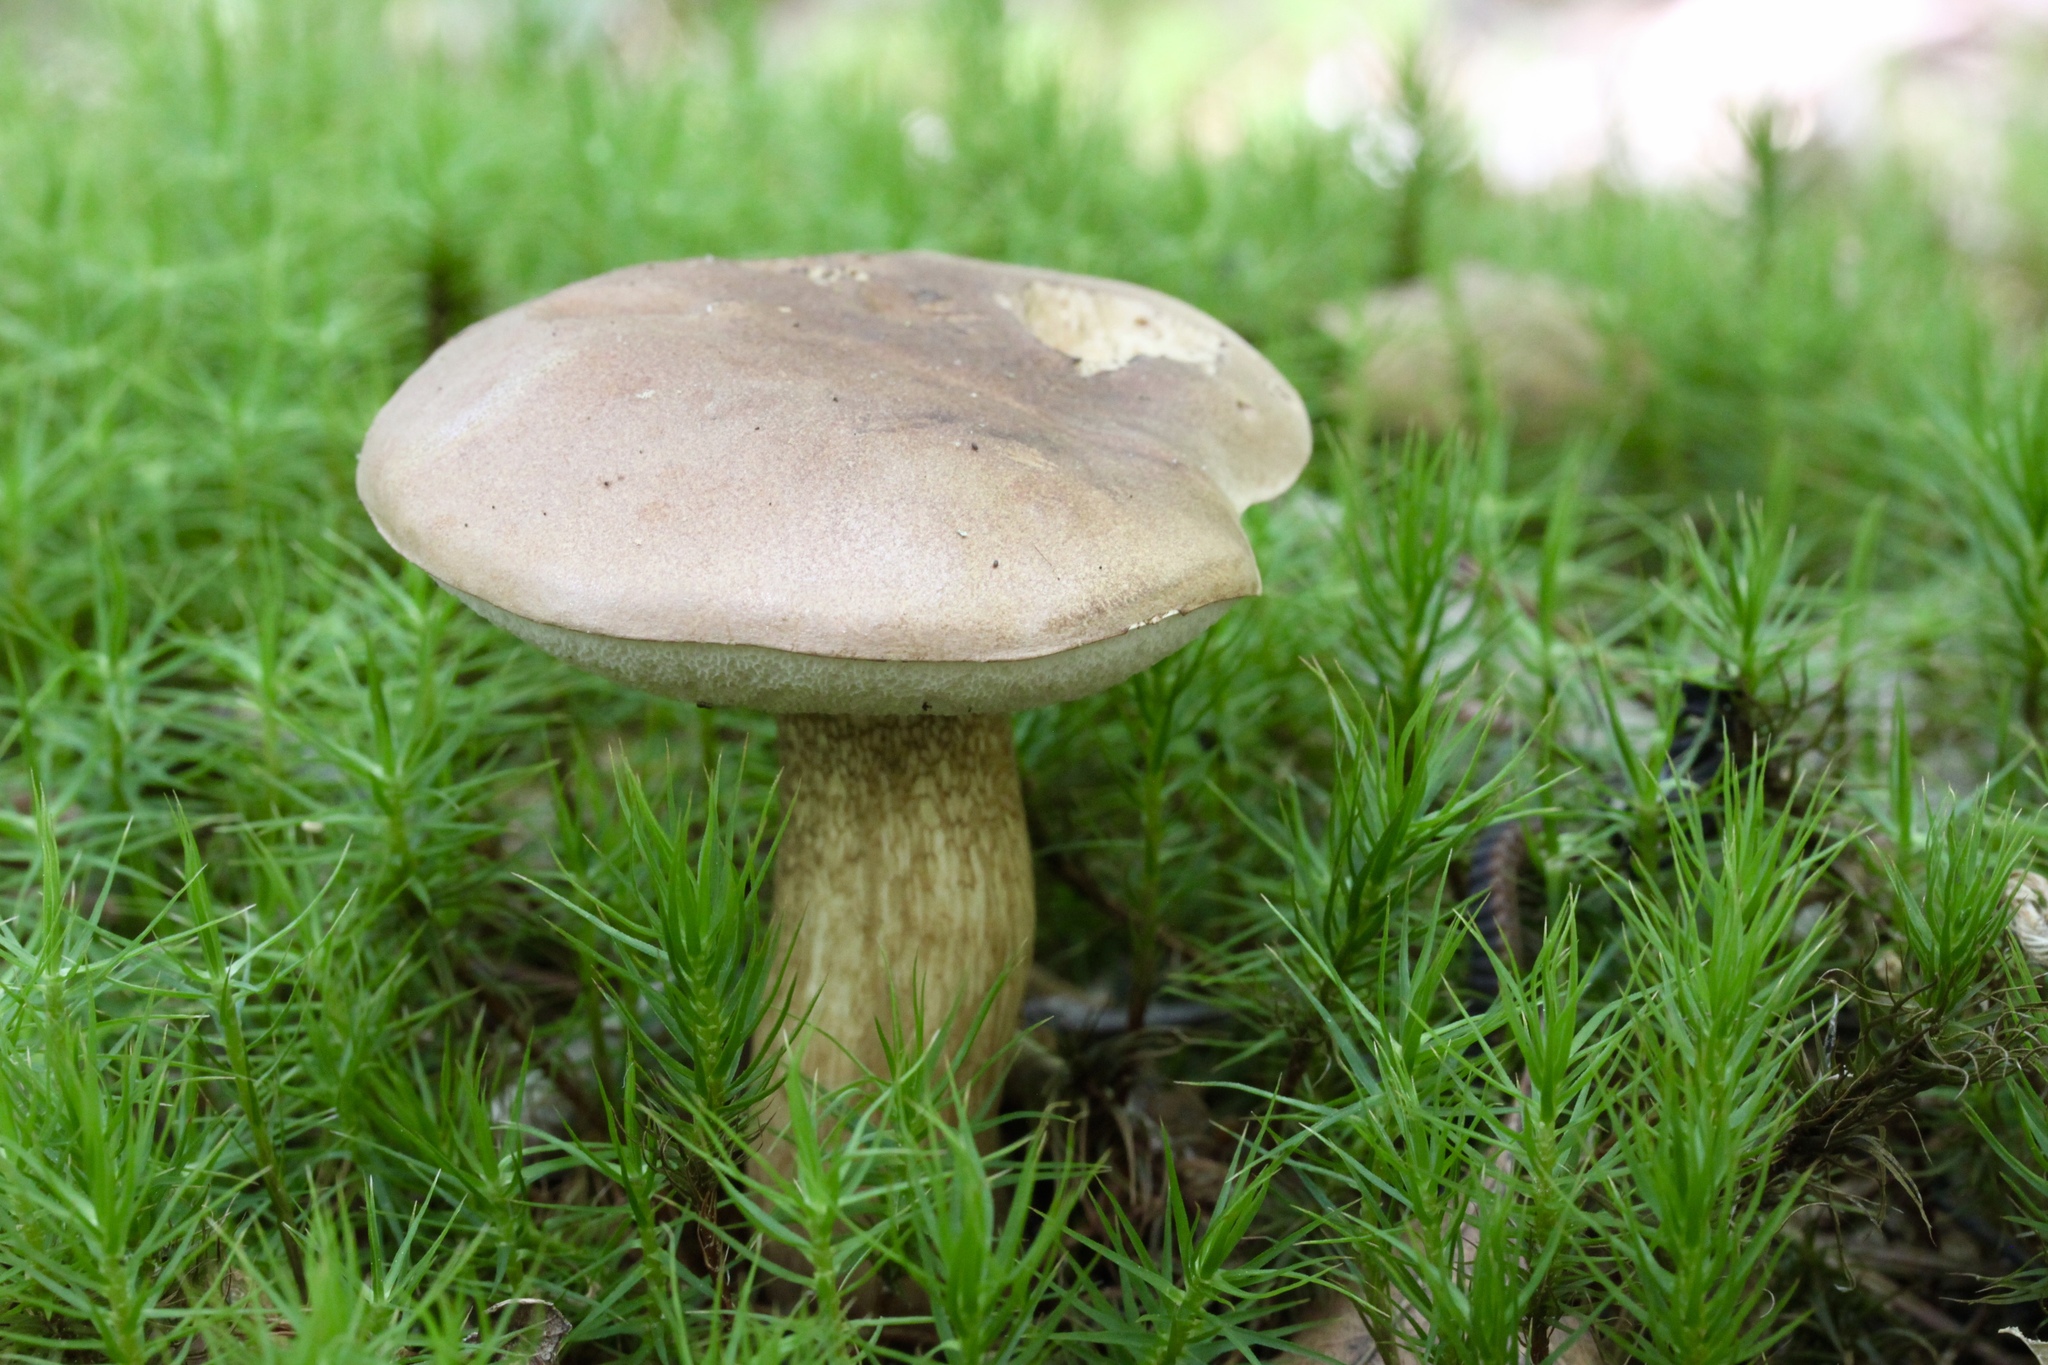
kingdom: Fungi
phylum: Basidiomycota
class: Agaricomycetes
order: Boletales
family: Boletaceae
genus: Tylopilus
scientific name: Tylopilus felleus
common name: Bitter bolete
